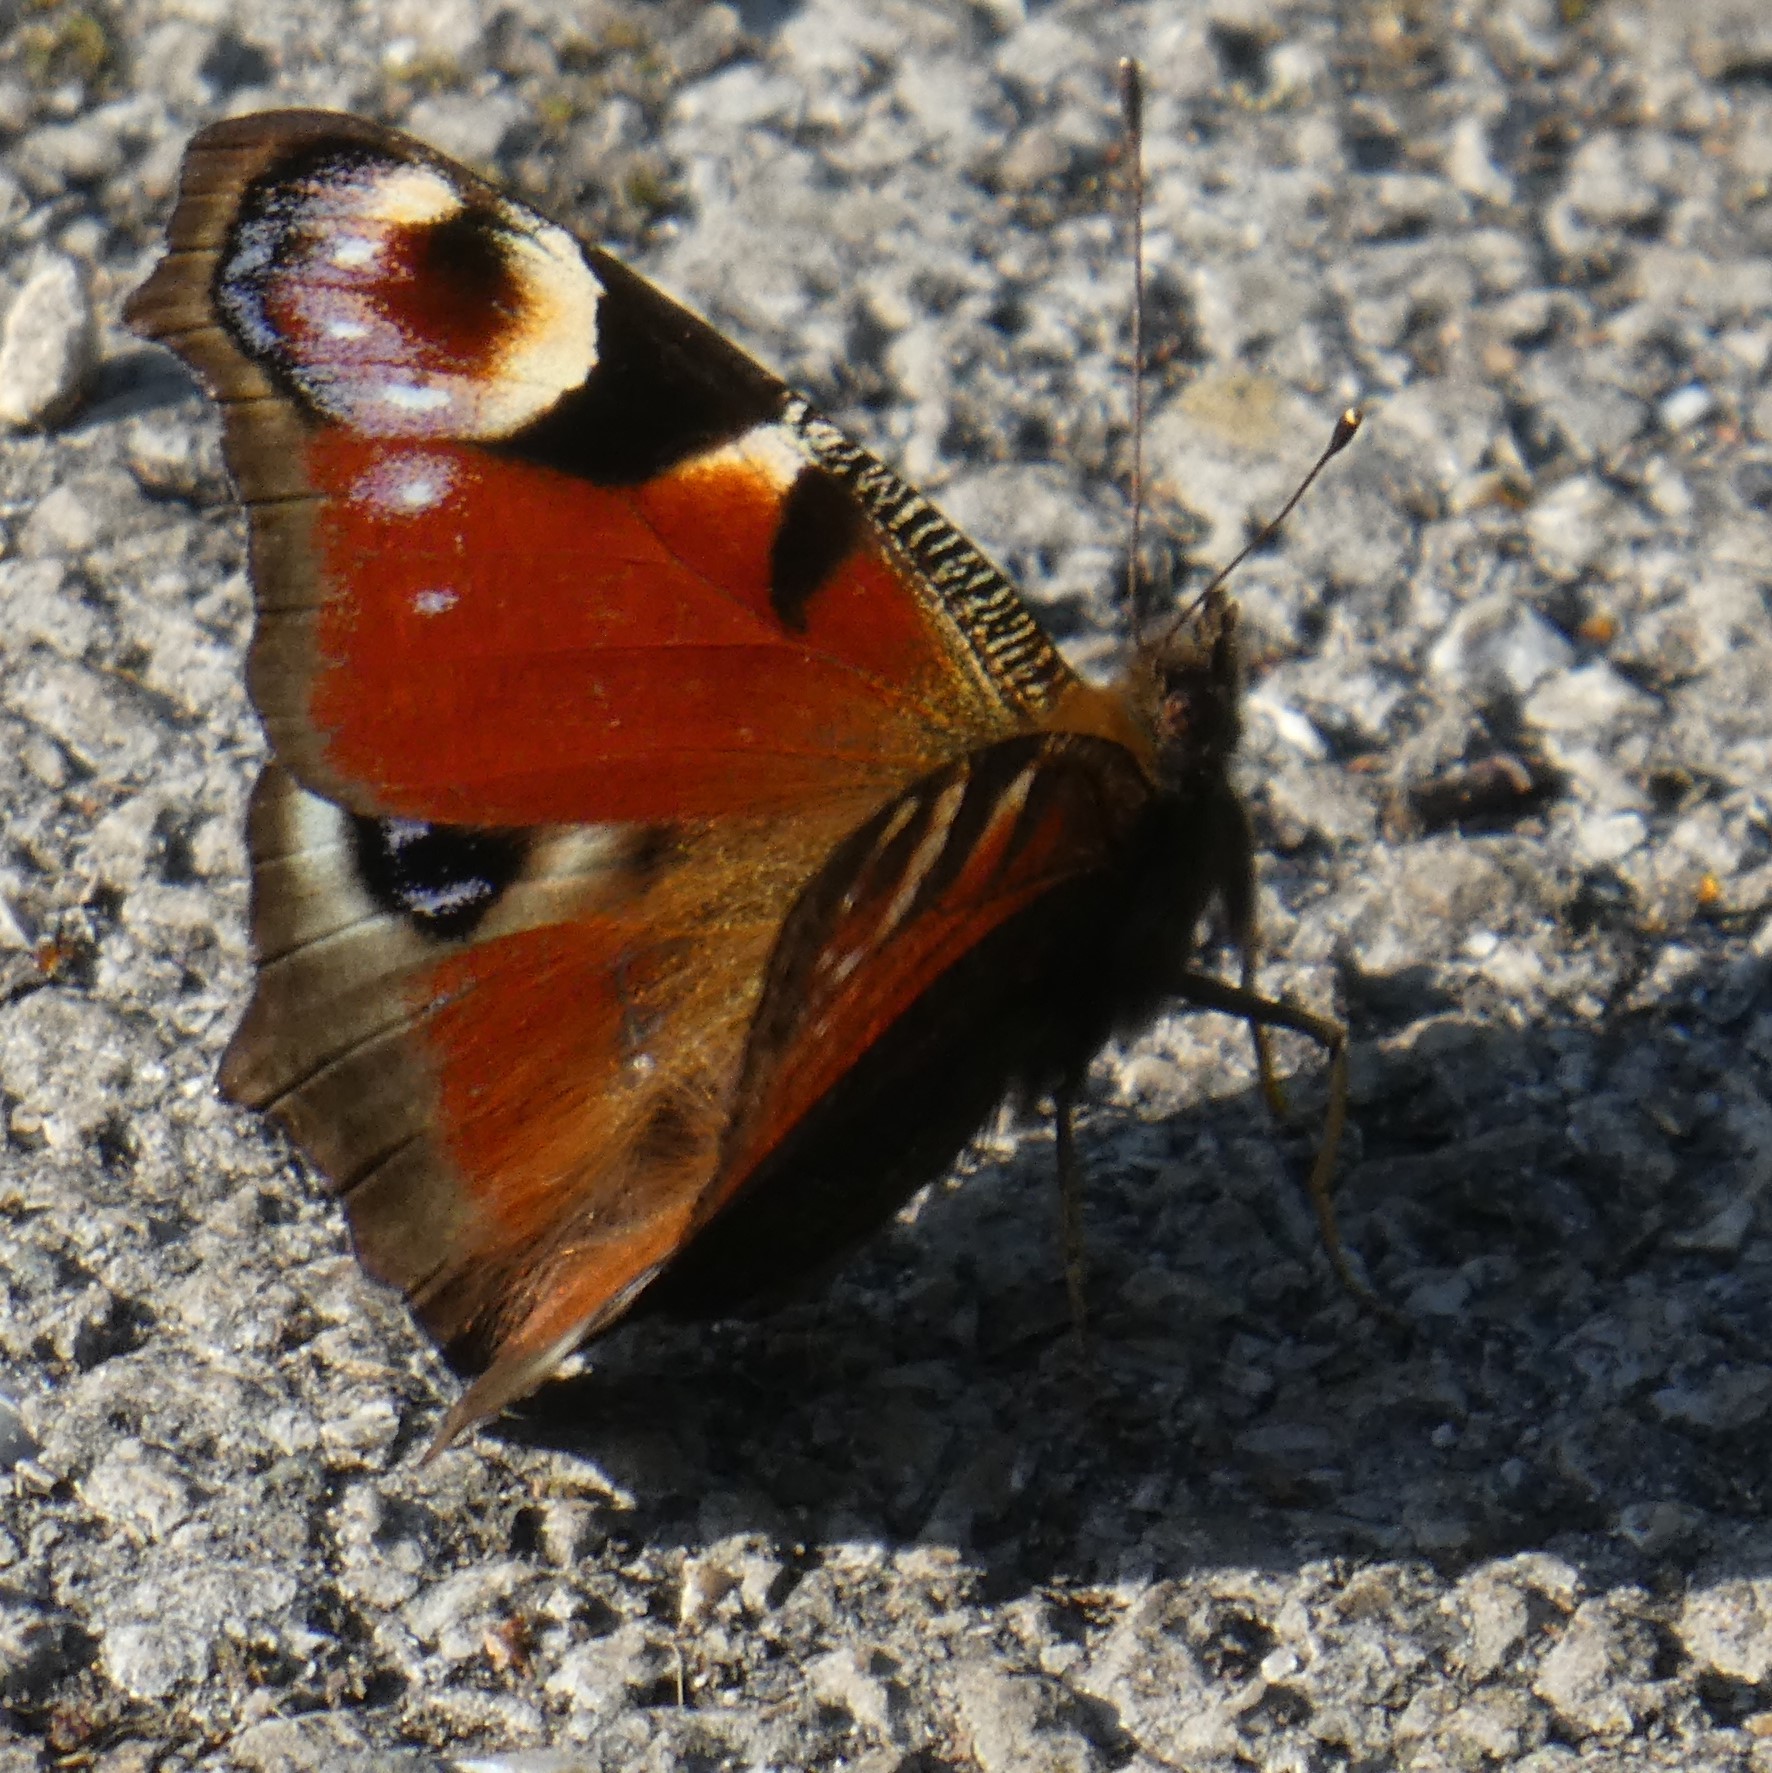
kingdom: Animalia
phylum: Arthropoda
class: Insecta
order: Lepidoptera
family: Nymphalidae
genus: Aglais
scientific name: Aglais io
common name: Peacock
